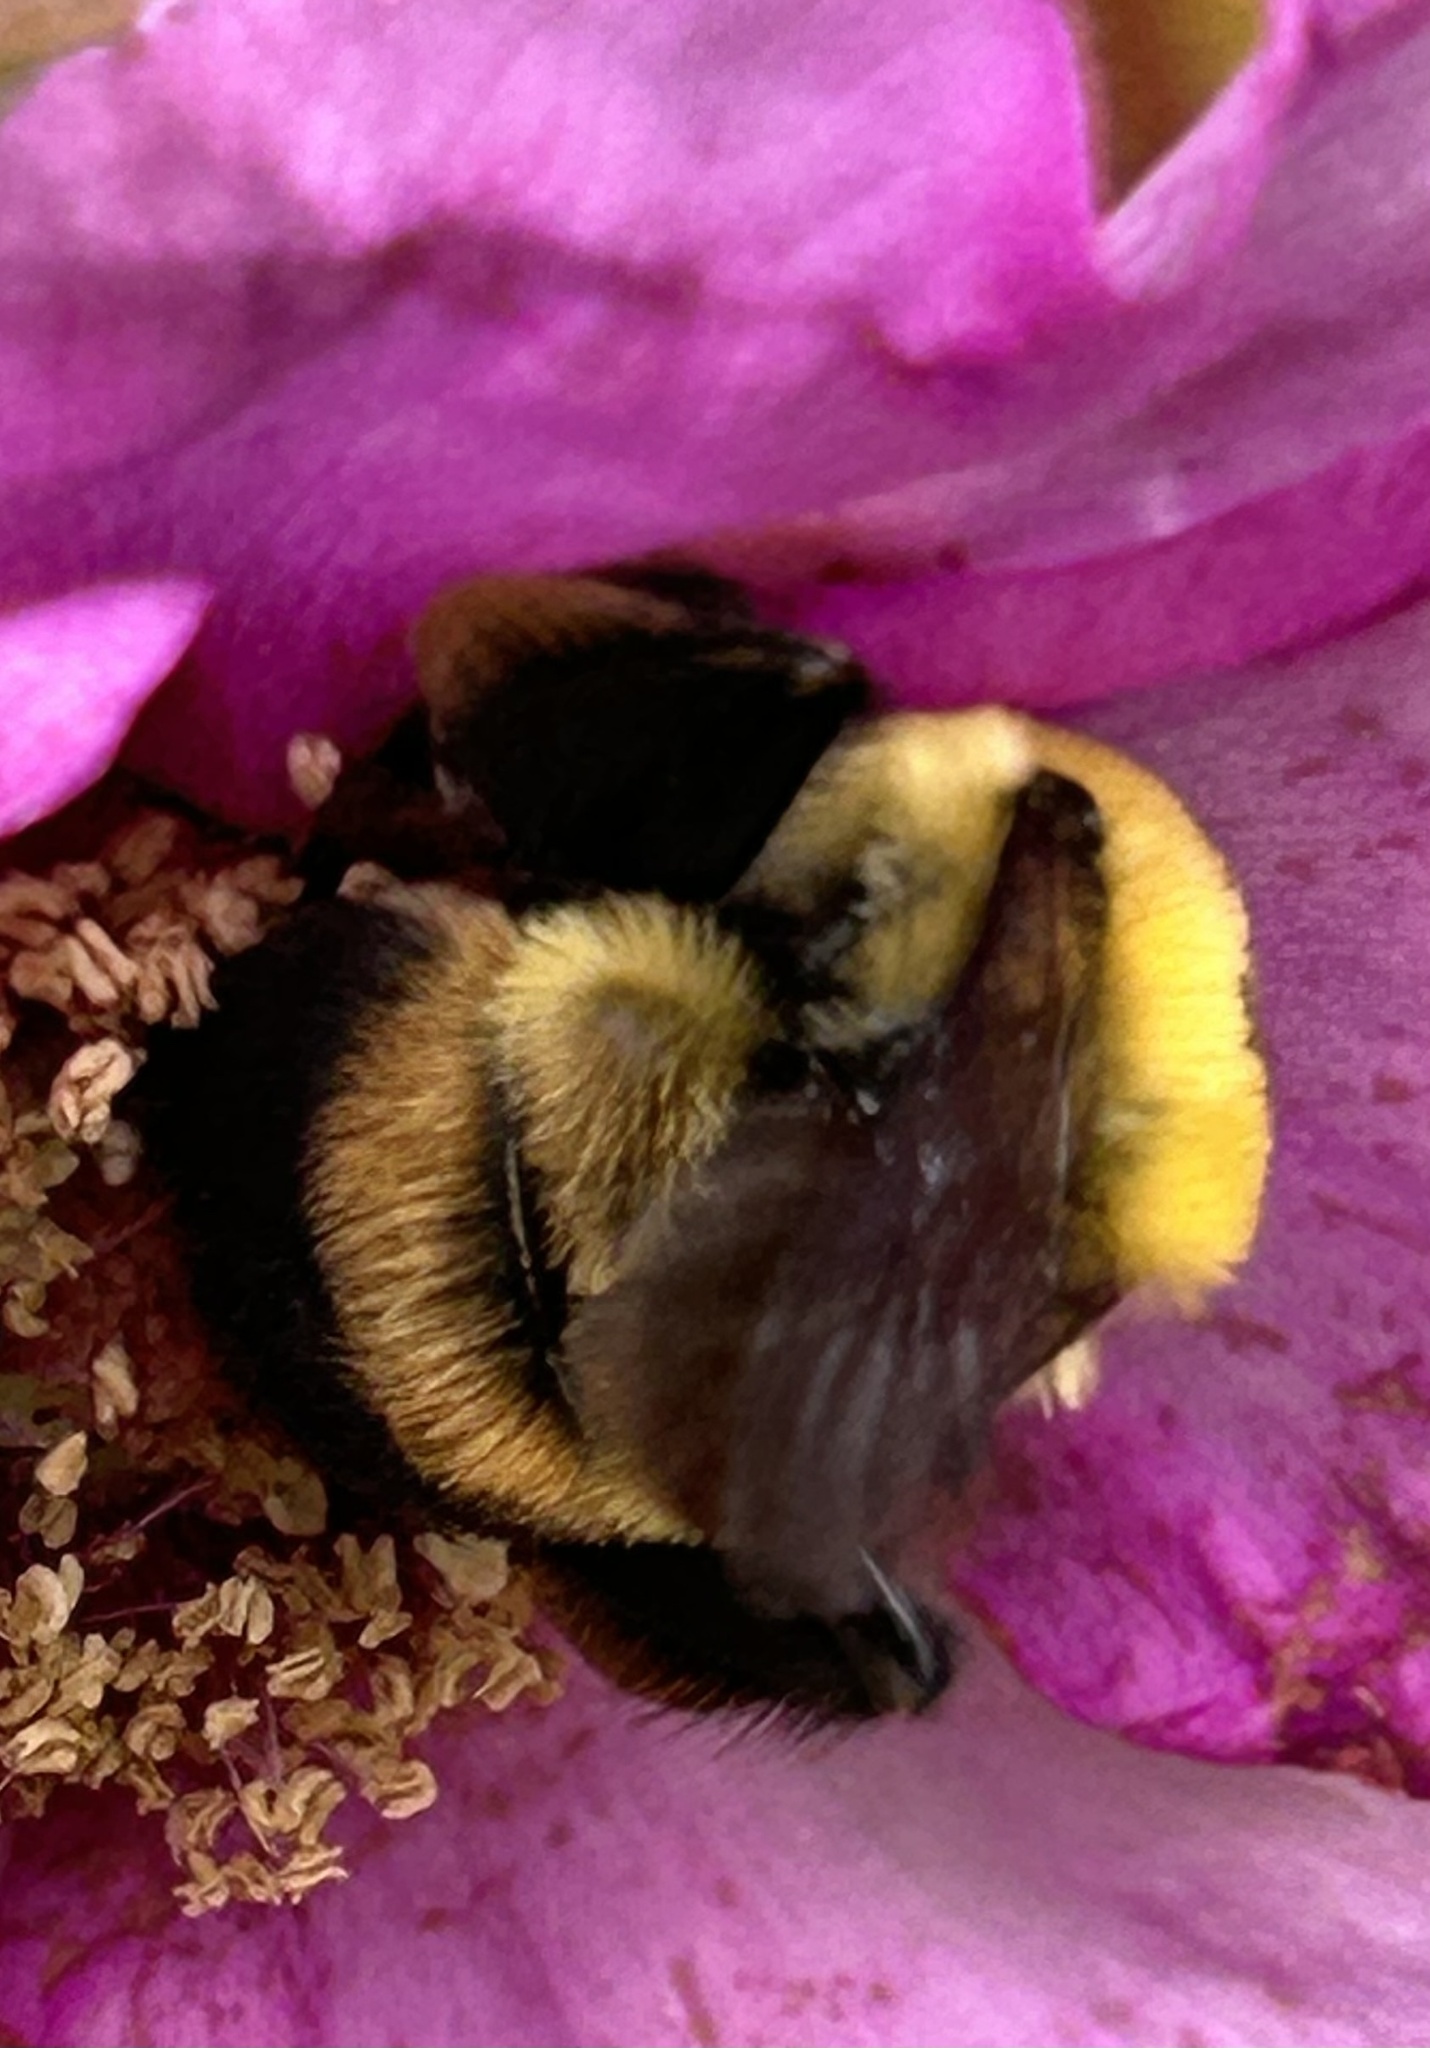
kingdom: Animalia
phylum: Arthropoda
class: Insecta
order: Hymenoptera
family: Apidae
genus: Bombus
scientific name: Bombus griseocollis
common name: Brown-belted bumble bee
